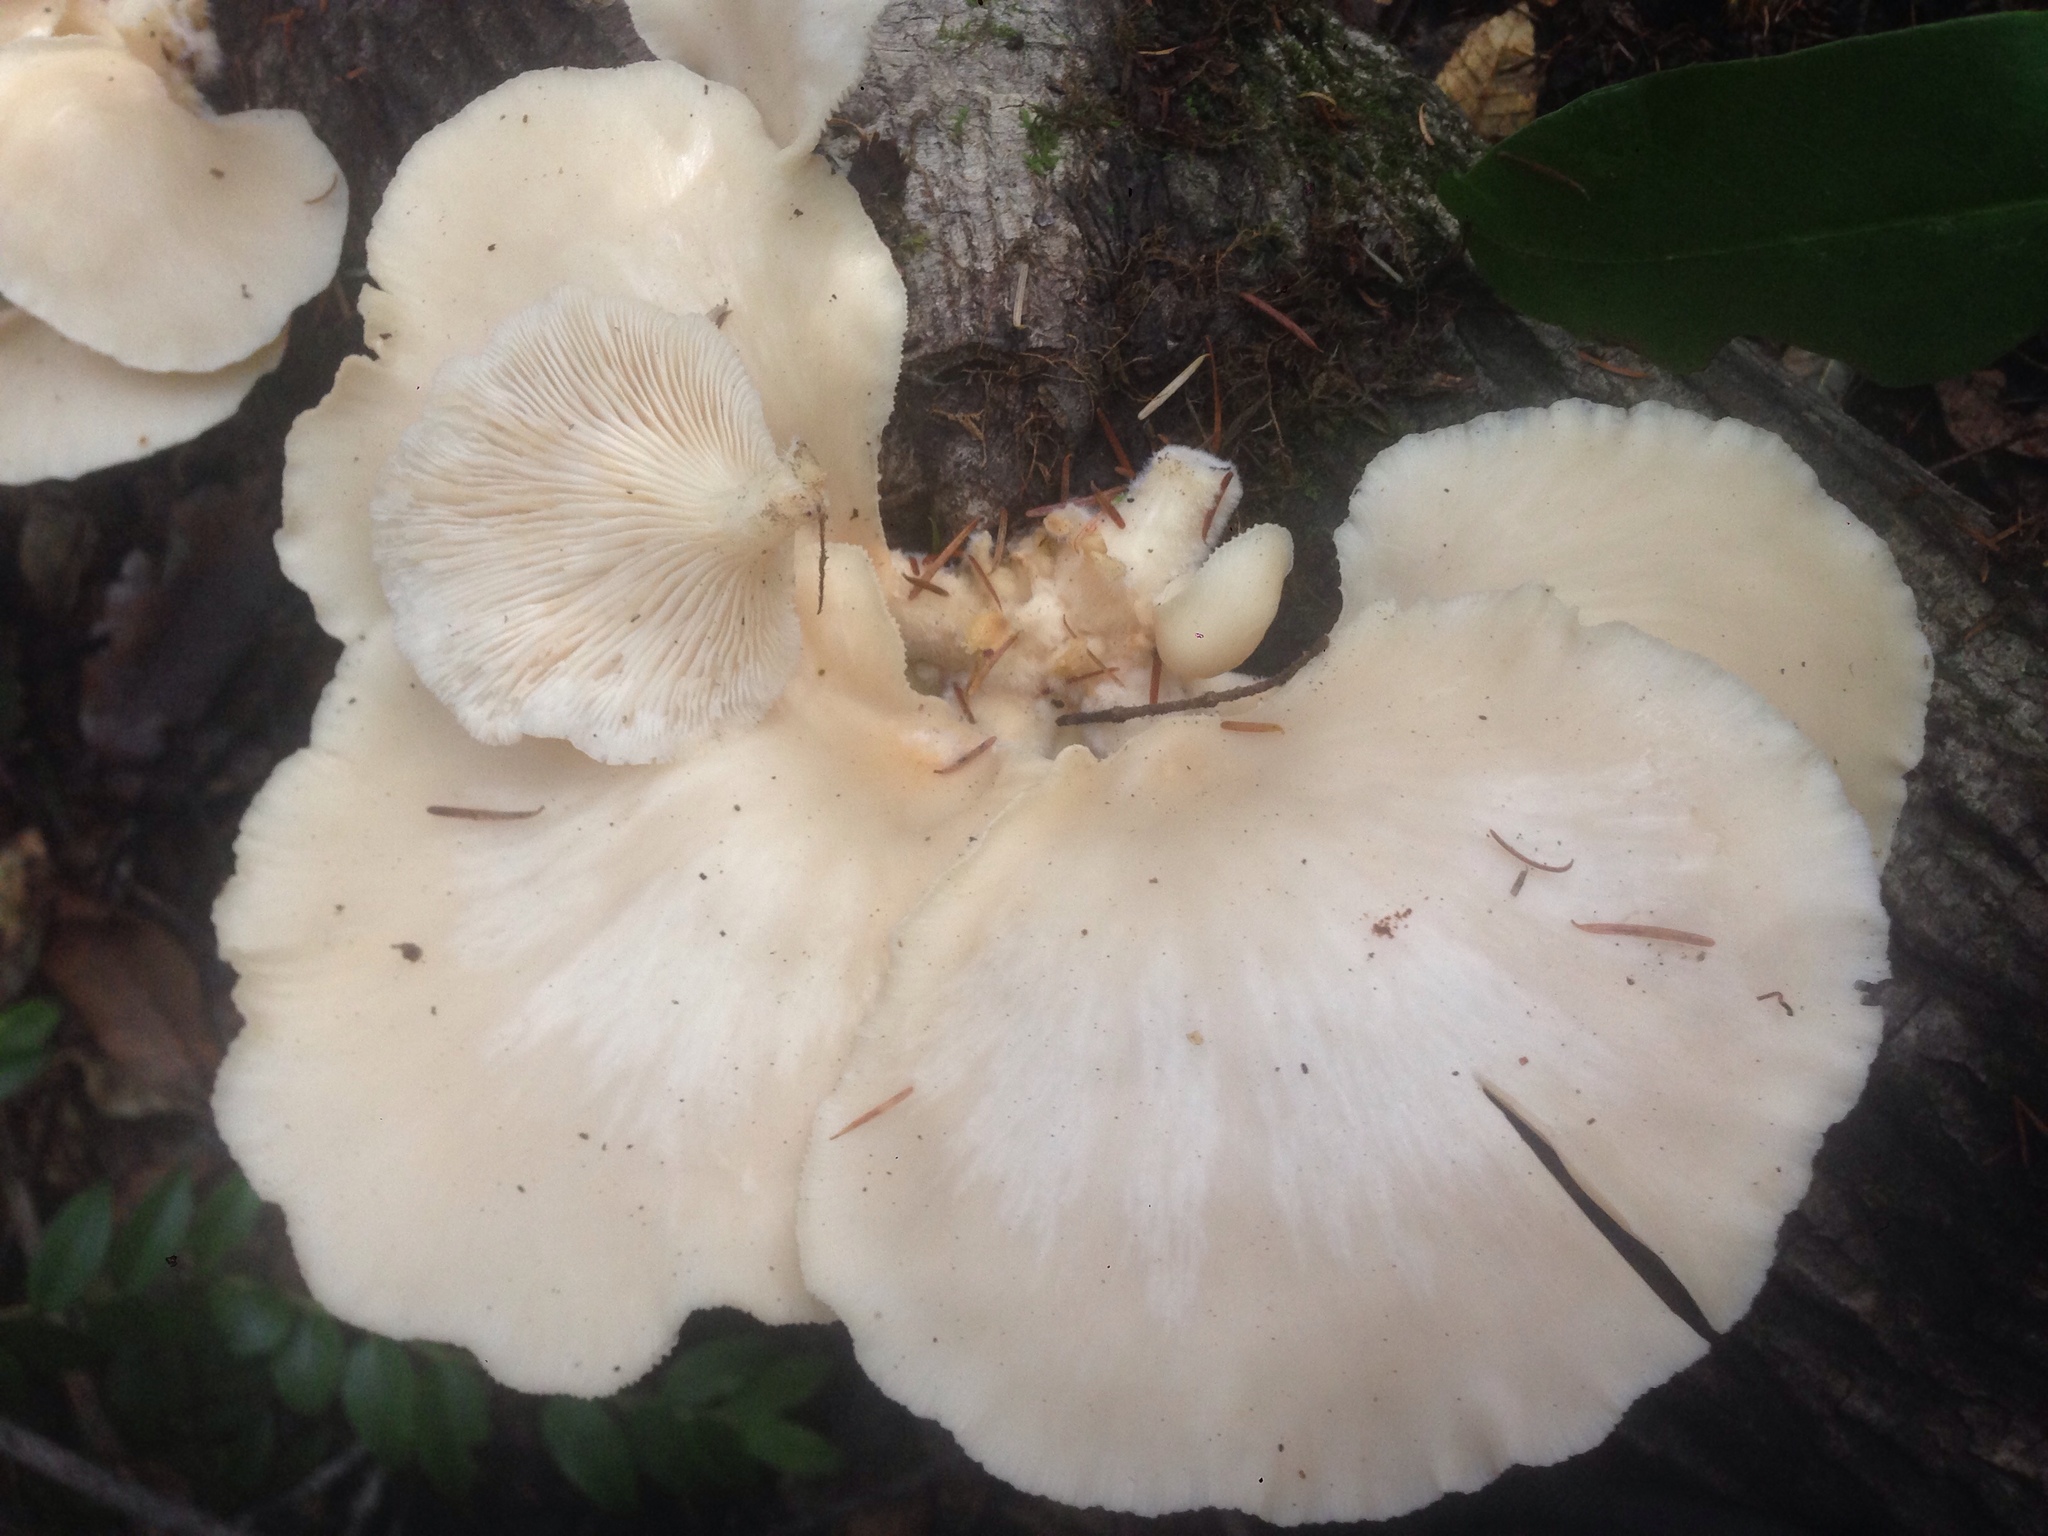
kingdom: Fungi
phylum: Basidiomycota
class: Agaricomycetes
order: Agaricales
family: Pleurotaceae
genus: Pleurotus
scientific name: Pleurotus ostreatus
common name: Oyster mushroom
